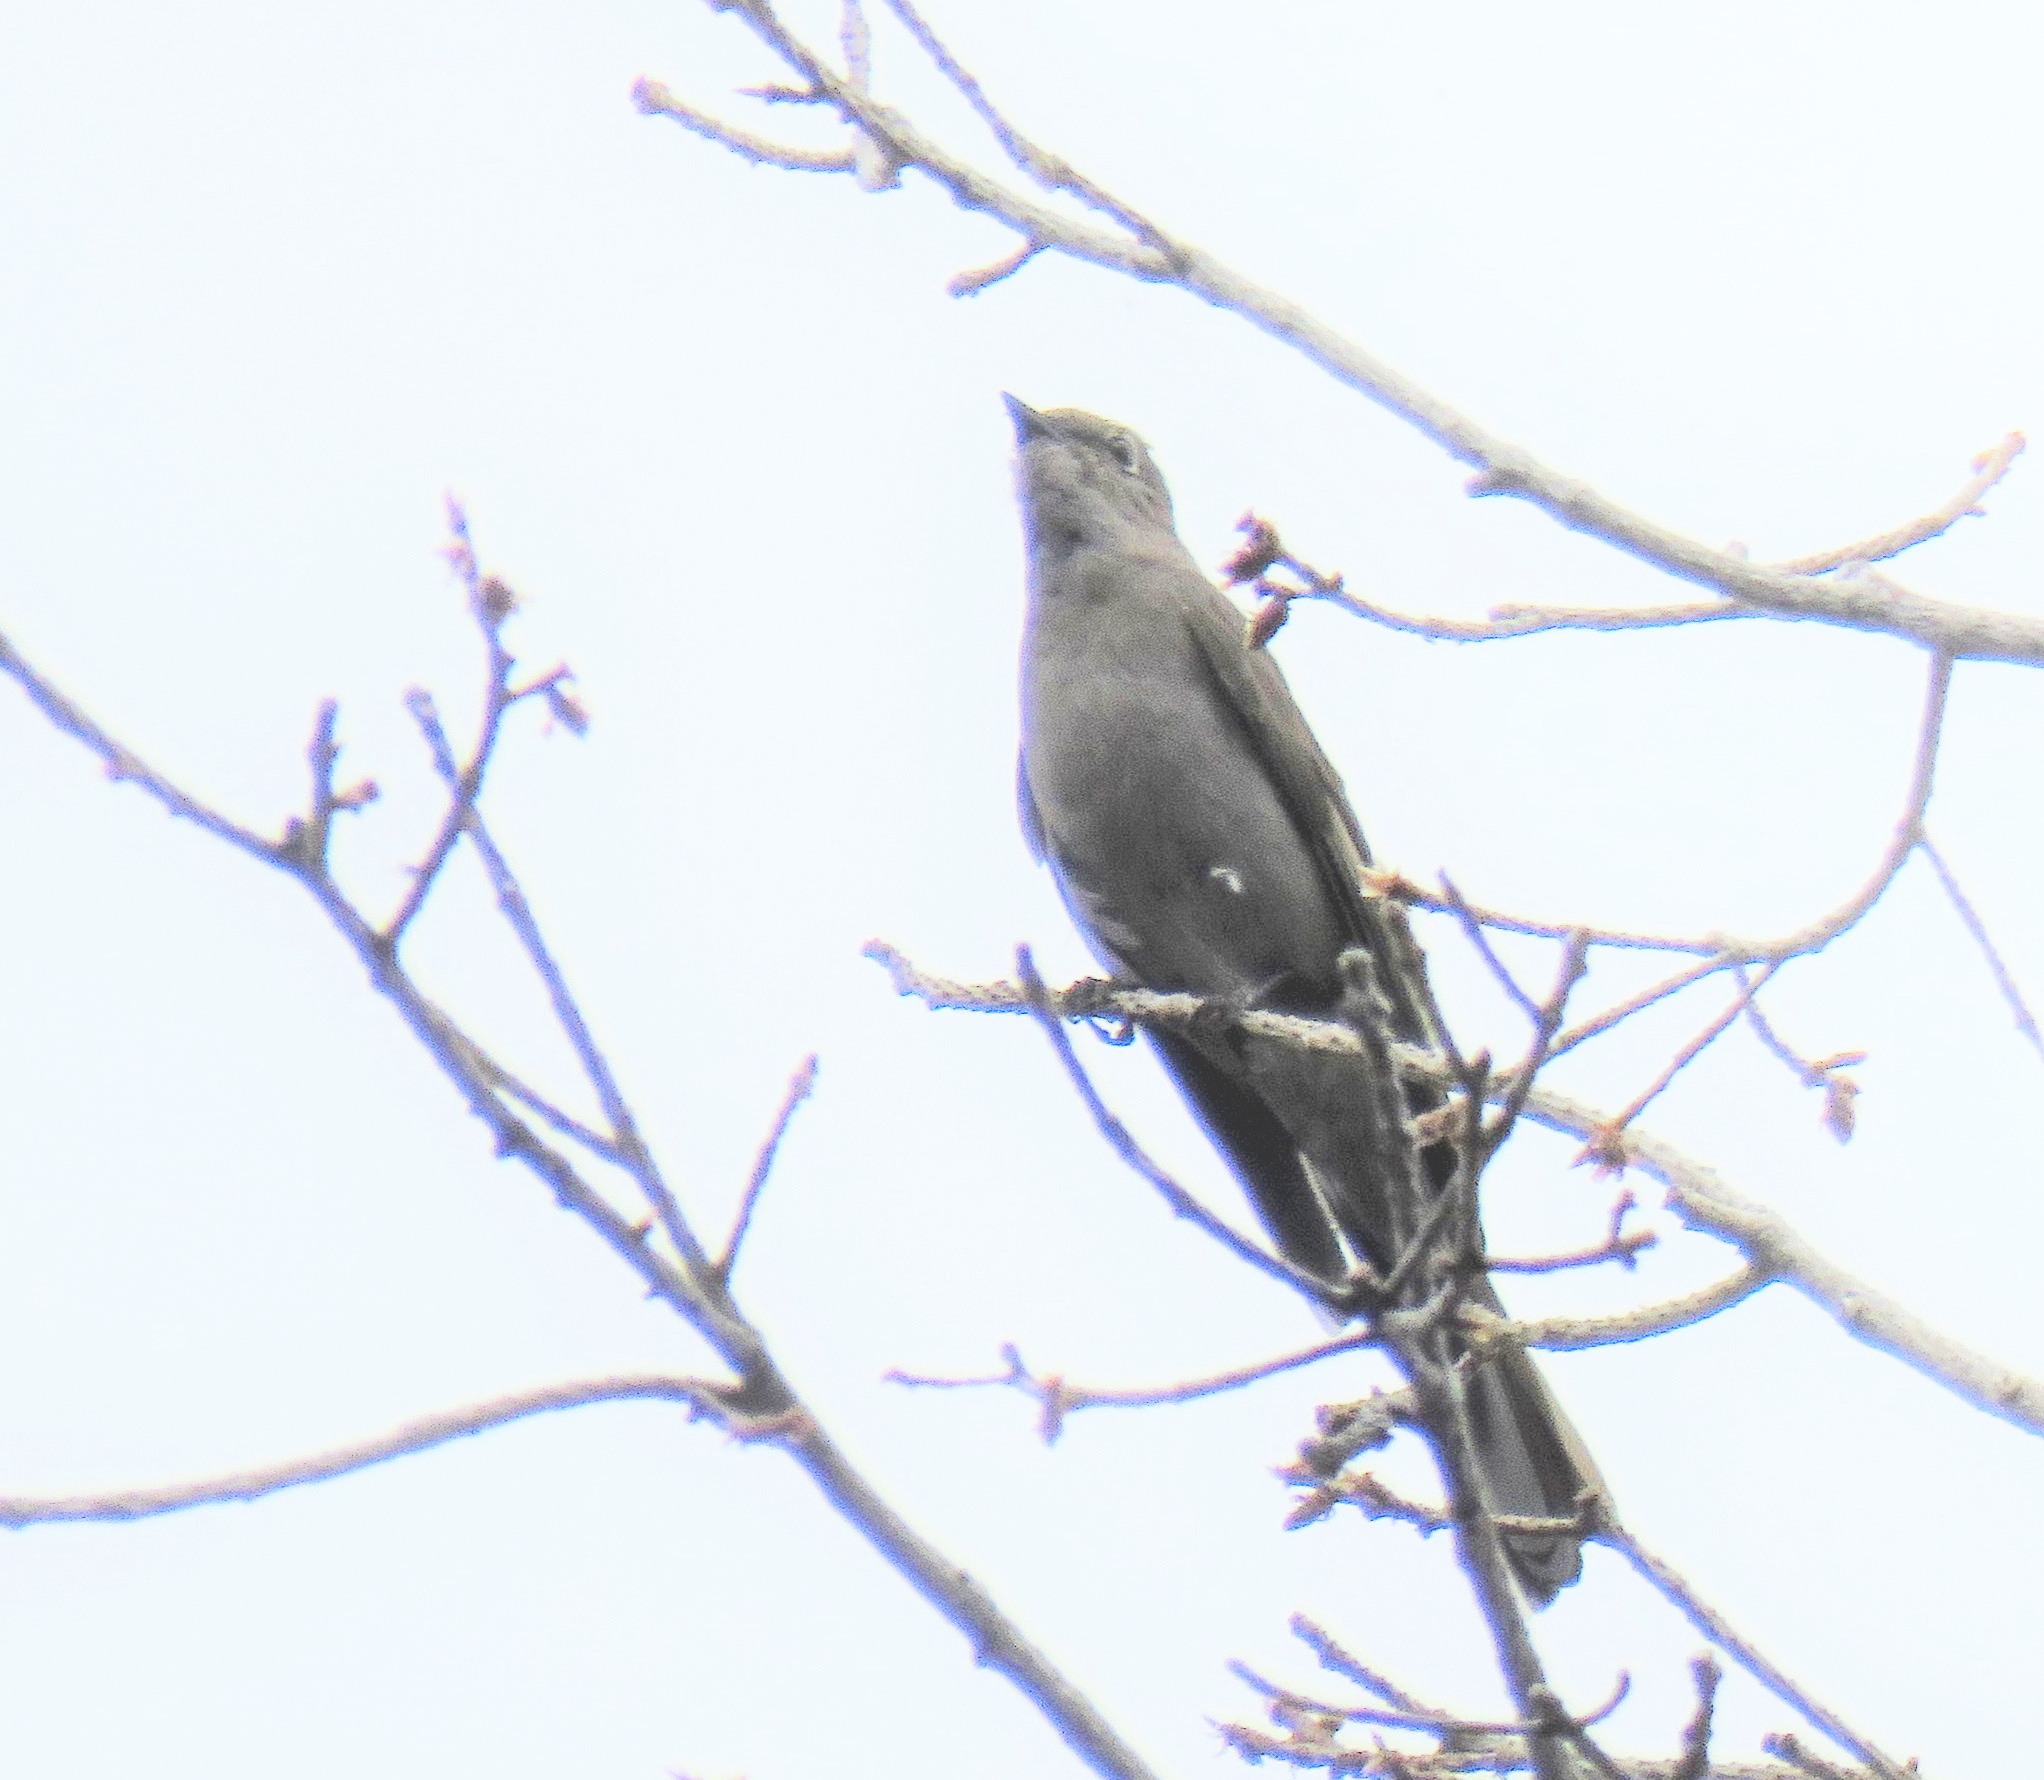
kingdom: Animalia
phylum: Chordata
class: Aves
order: Passeriformes
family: Turdidae
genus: Myadestes
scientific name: Myadestes townsendi
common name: Townsend's solitaire
